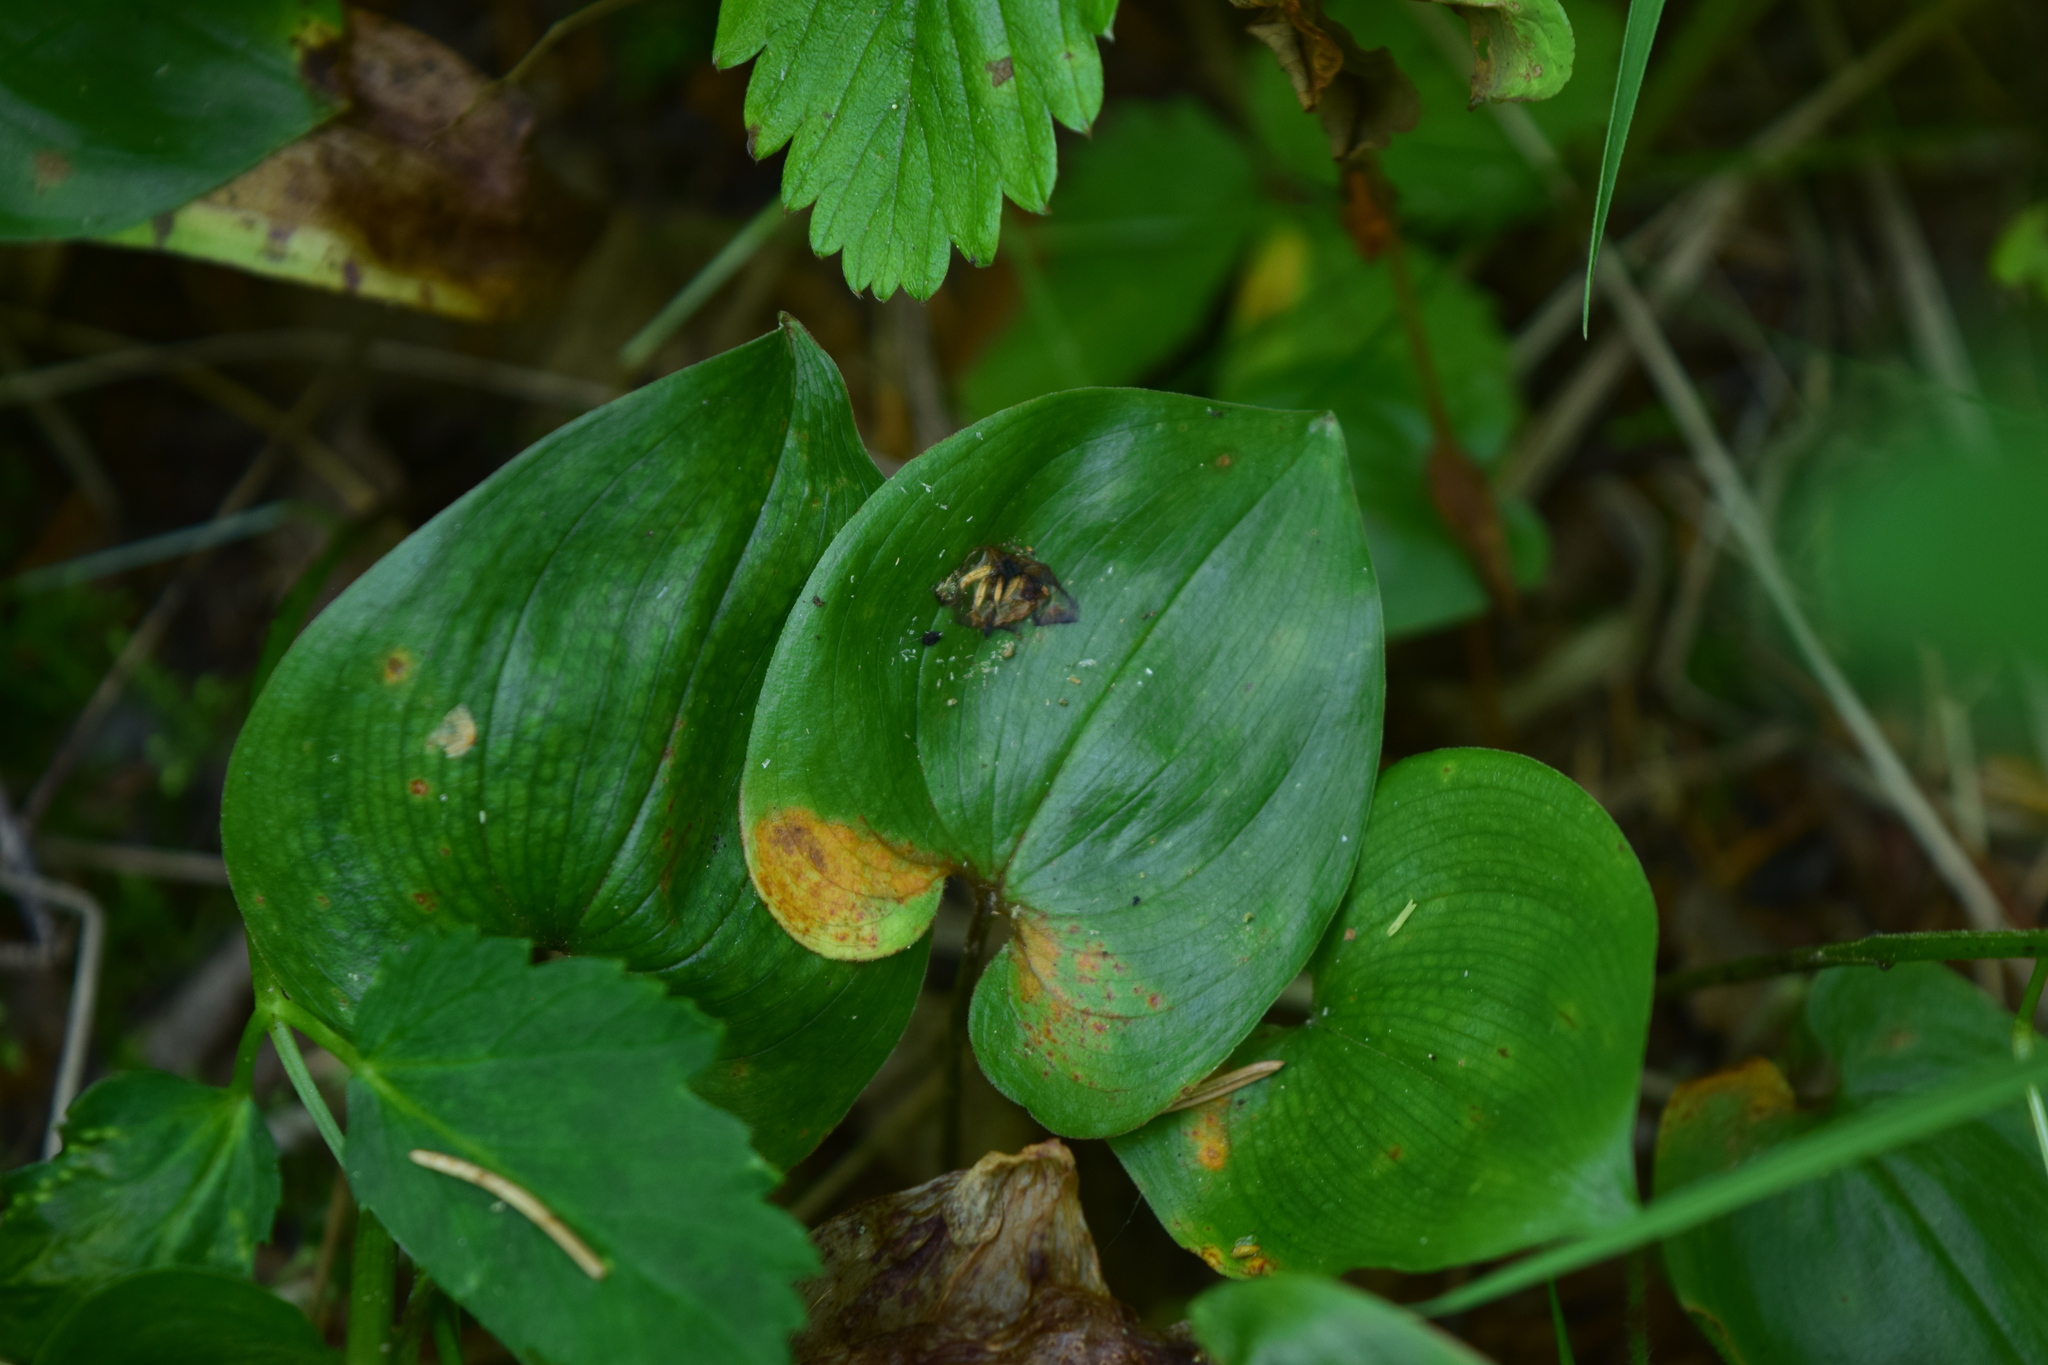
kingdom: Plantae
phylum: Tracheophyta
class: Liliopsida
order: Asparagales
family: Asparagaceae
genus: Maianthemum
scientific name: Maianthemum bifolium
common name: May lily
